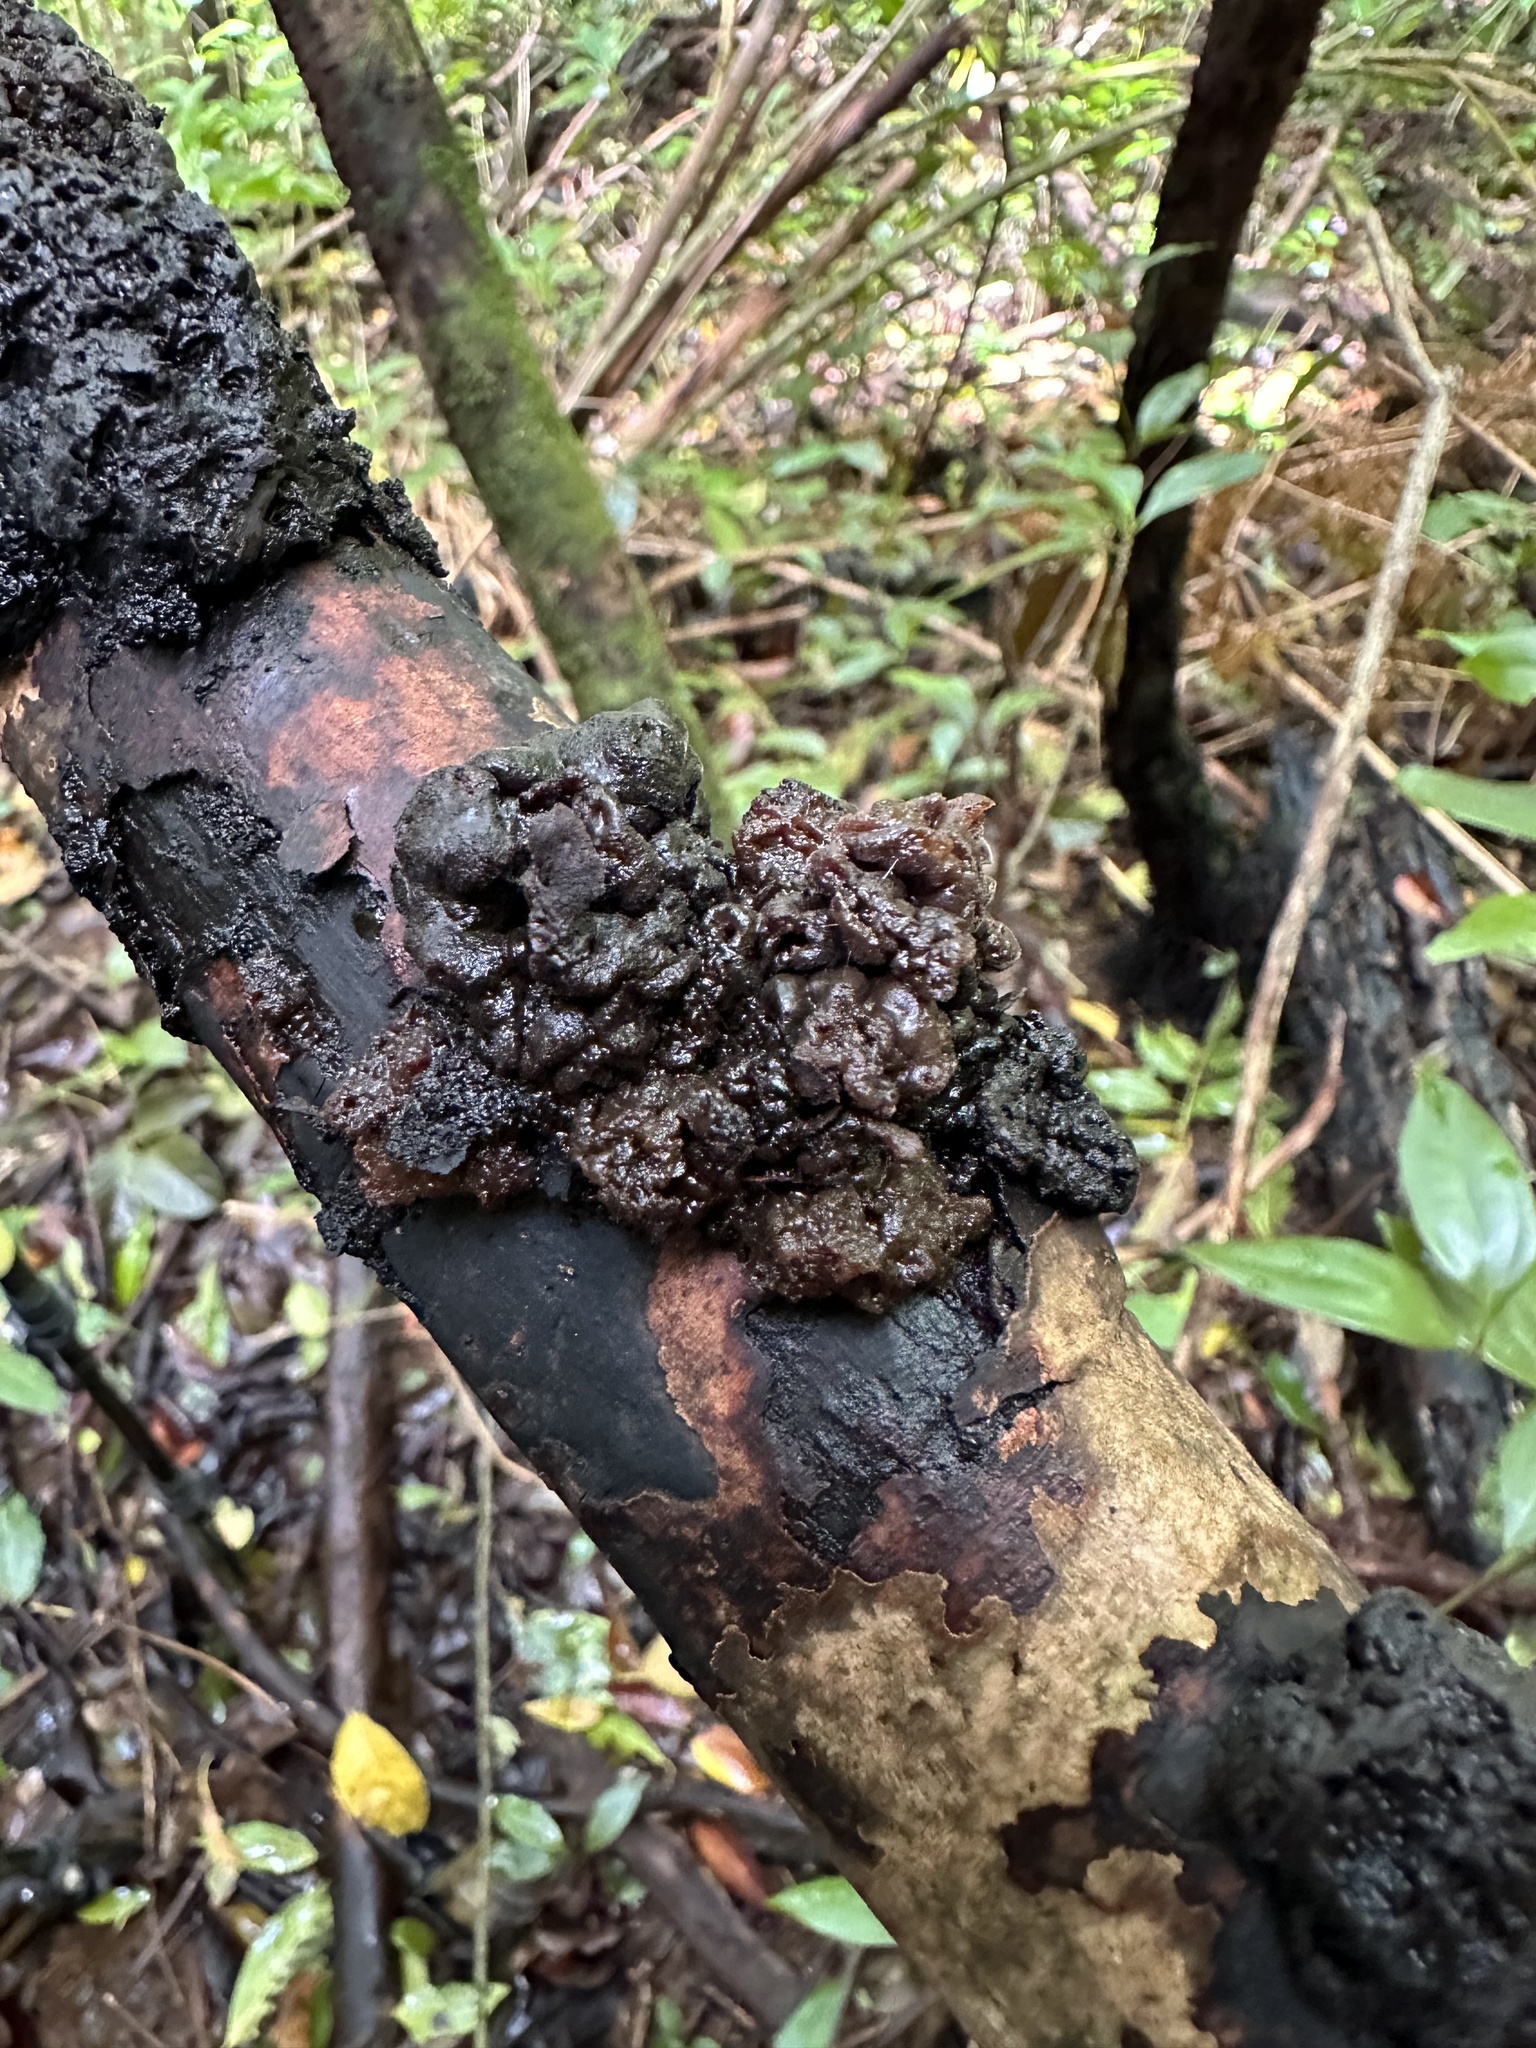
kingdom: Fungi
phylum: Basidiomycota
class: Tremellomycetes
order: Tremellales
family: Tremellaceae
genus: Tremella
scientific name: Tremella boraborensis
